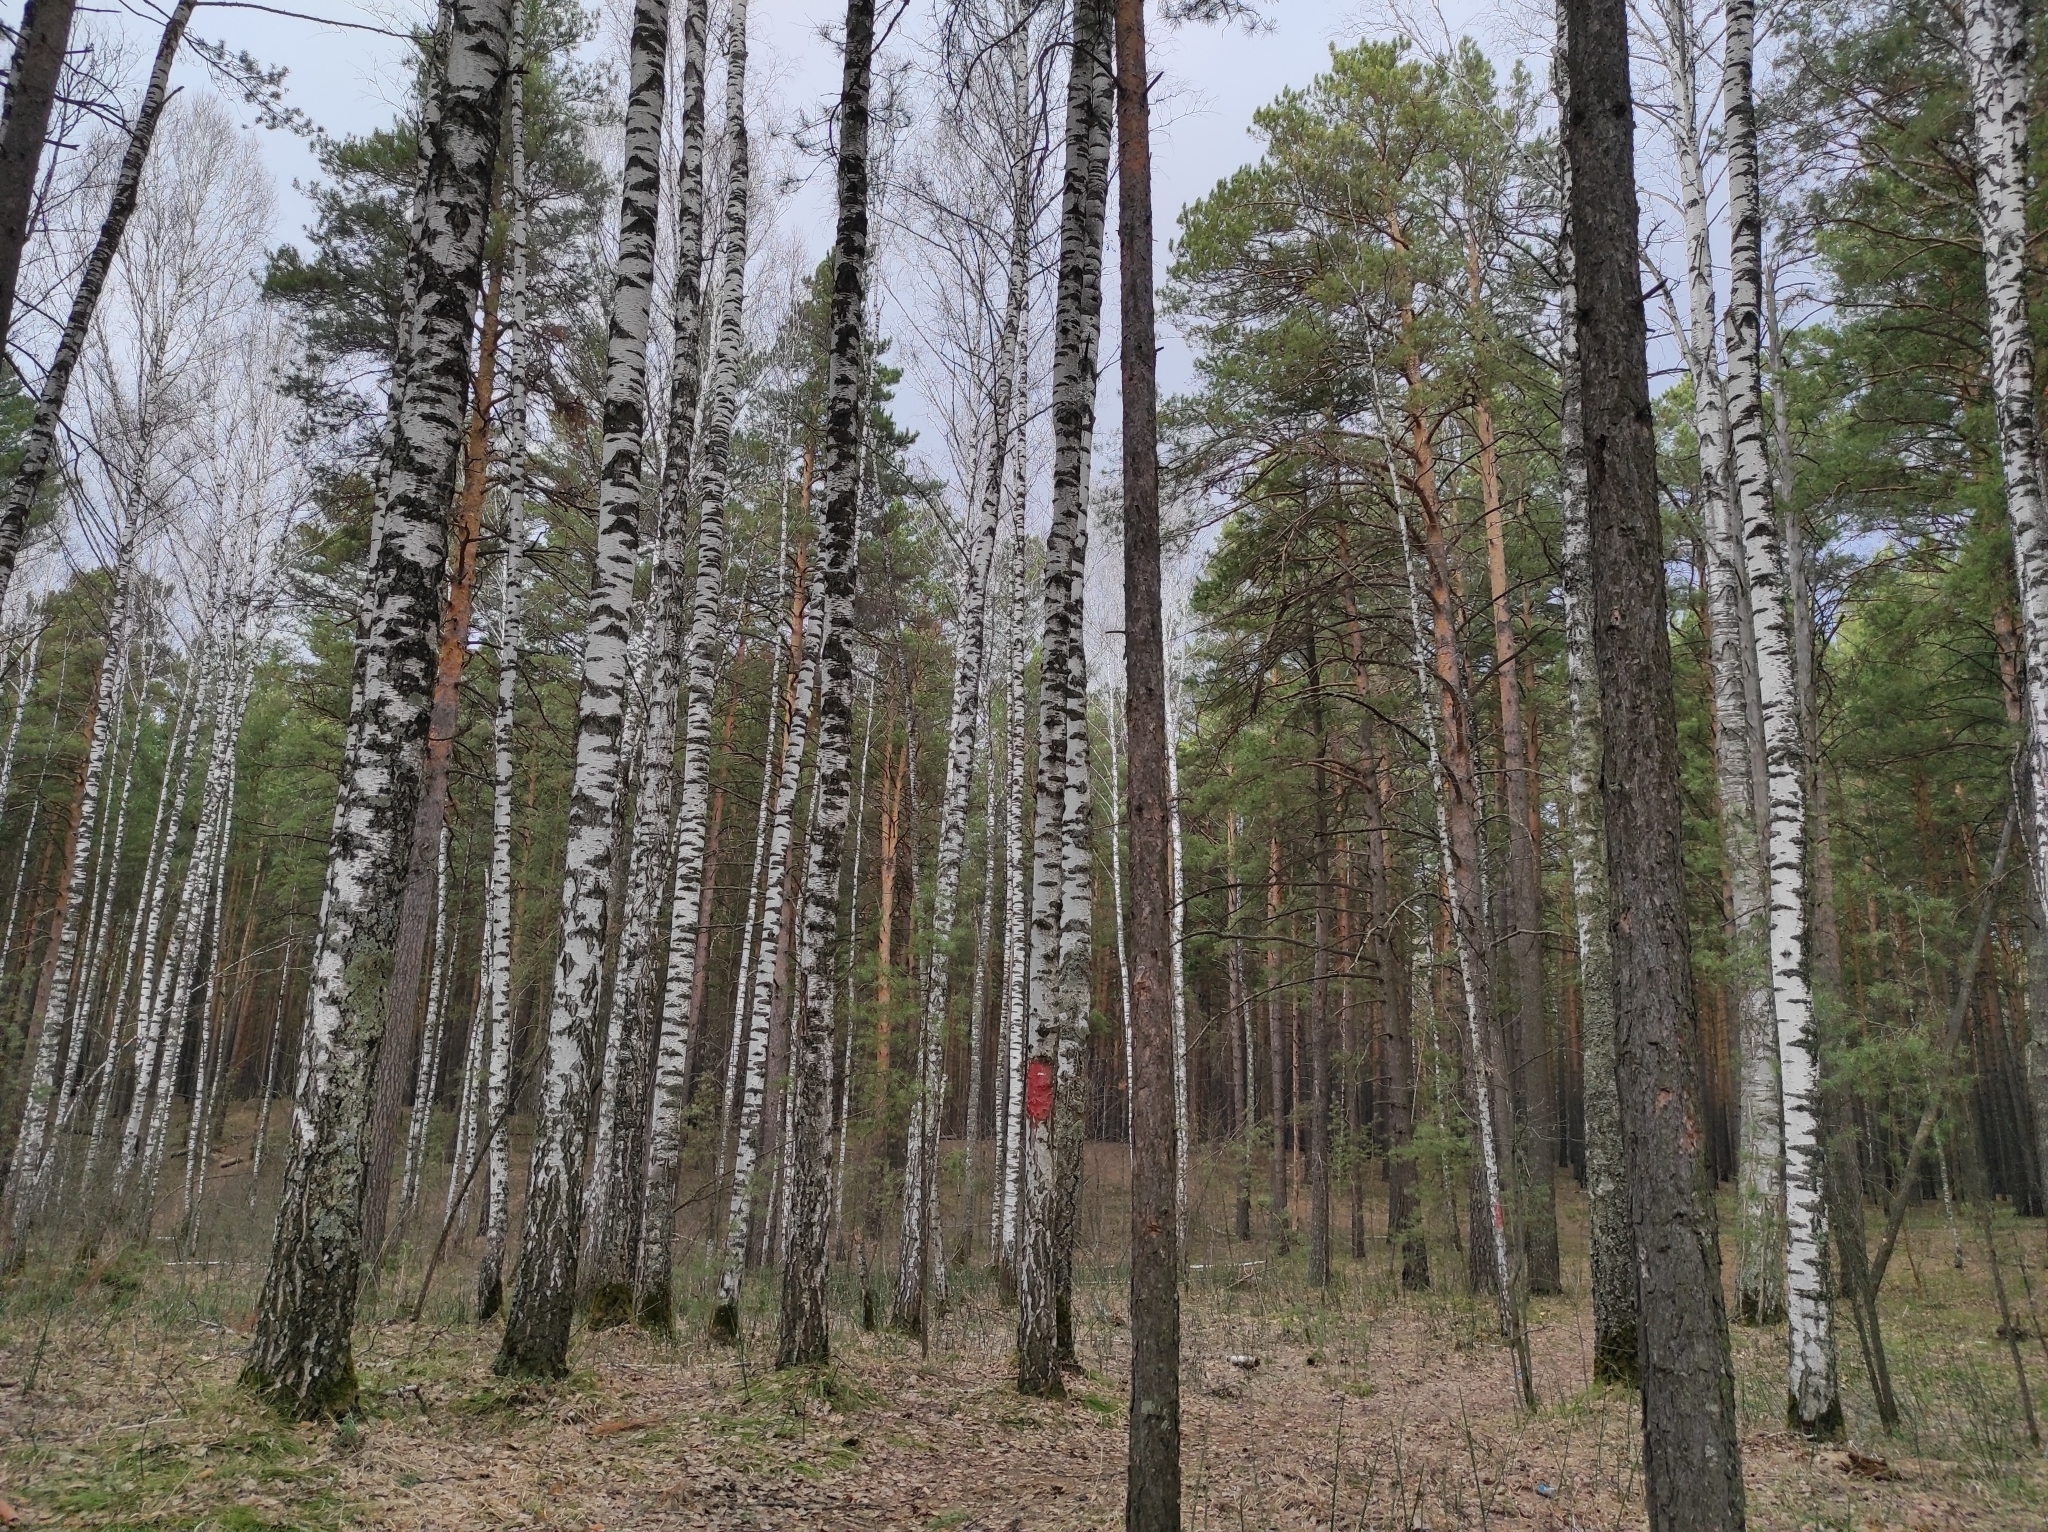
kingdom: Plantae
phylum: Tracheophyta
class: Pinopsida
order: Pinales
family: Pinaceae
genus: Pinus
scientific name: Pinus sylvestris
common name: Scots pine
